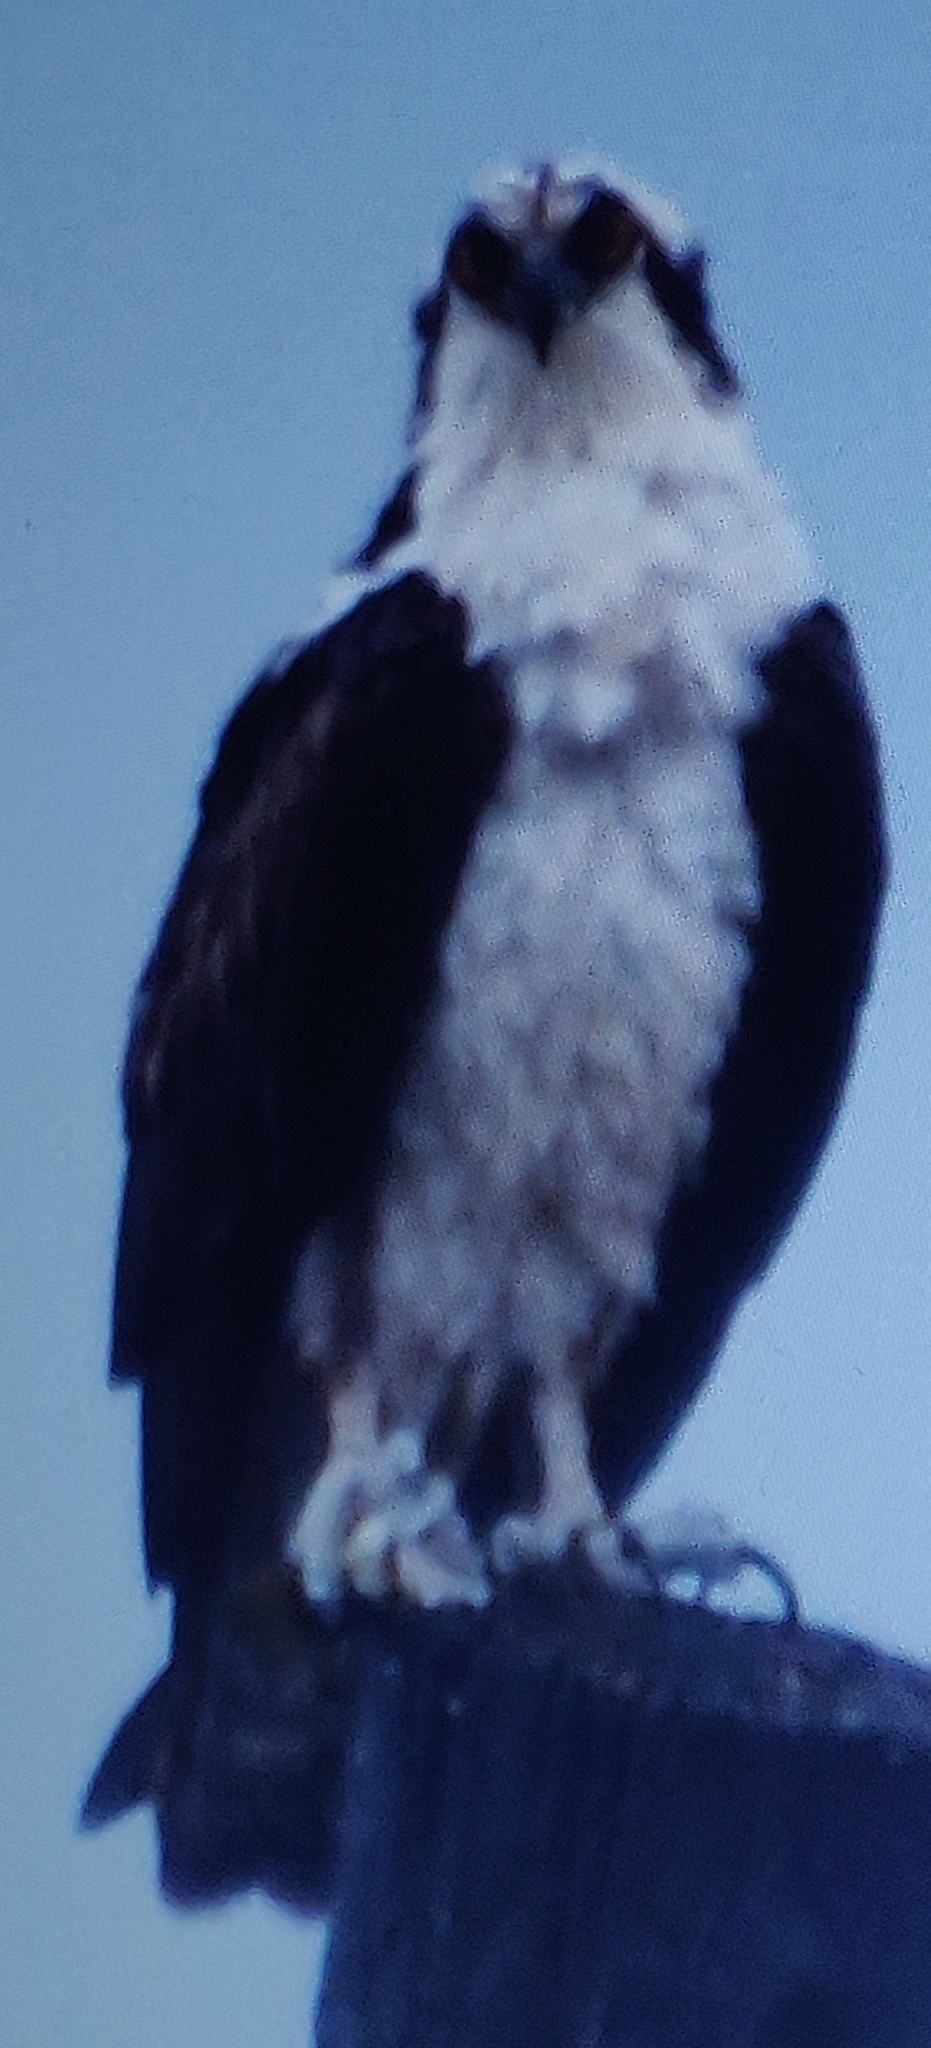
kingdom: Animalia
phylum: Chordata
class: Aves
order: Accipitriformes
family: Pandionidae
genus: Pandion
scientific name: Pandion haliaetus
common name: Osprey
